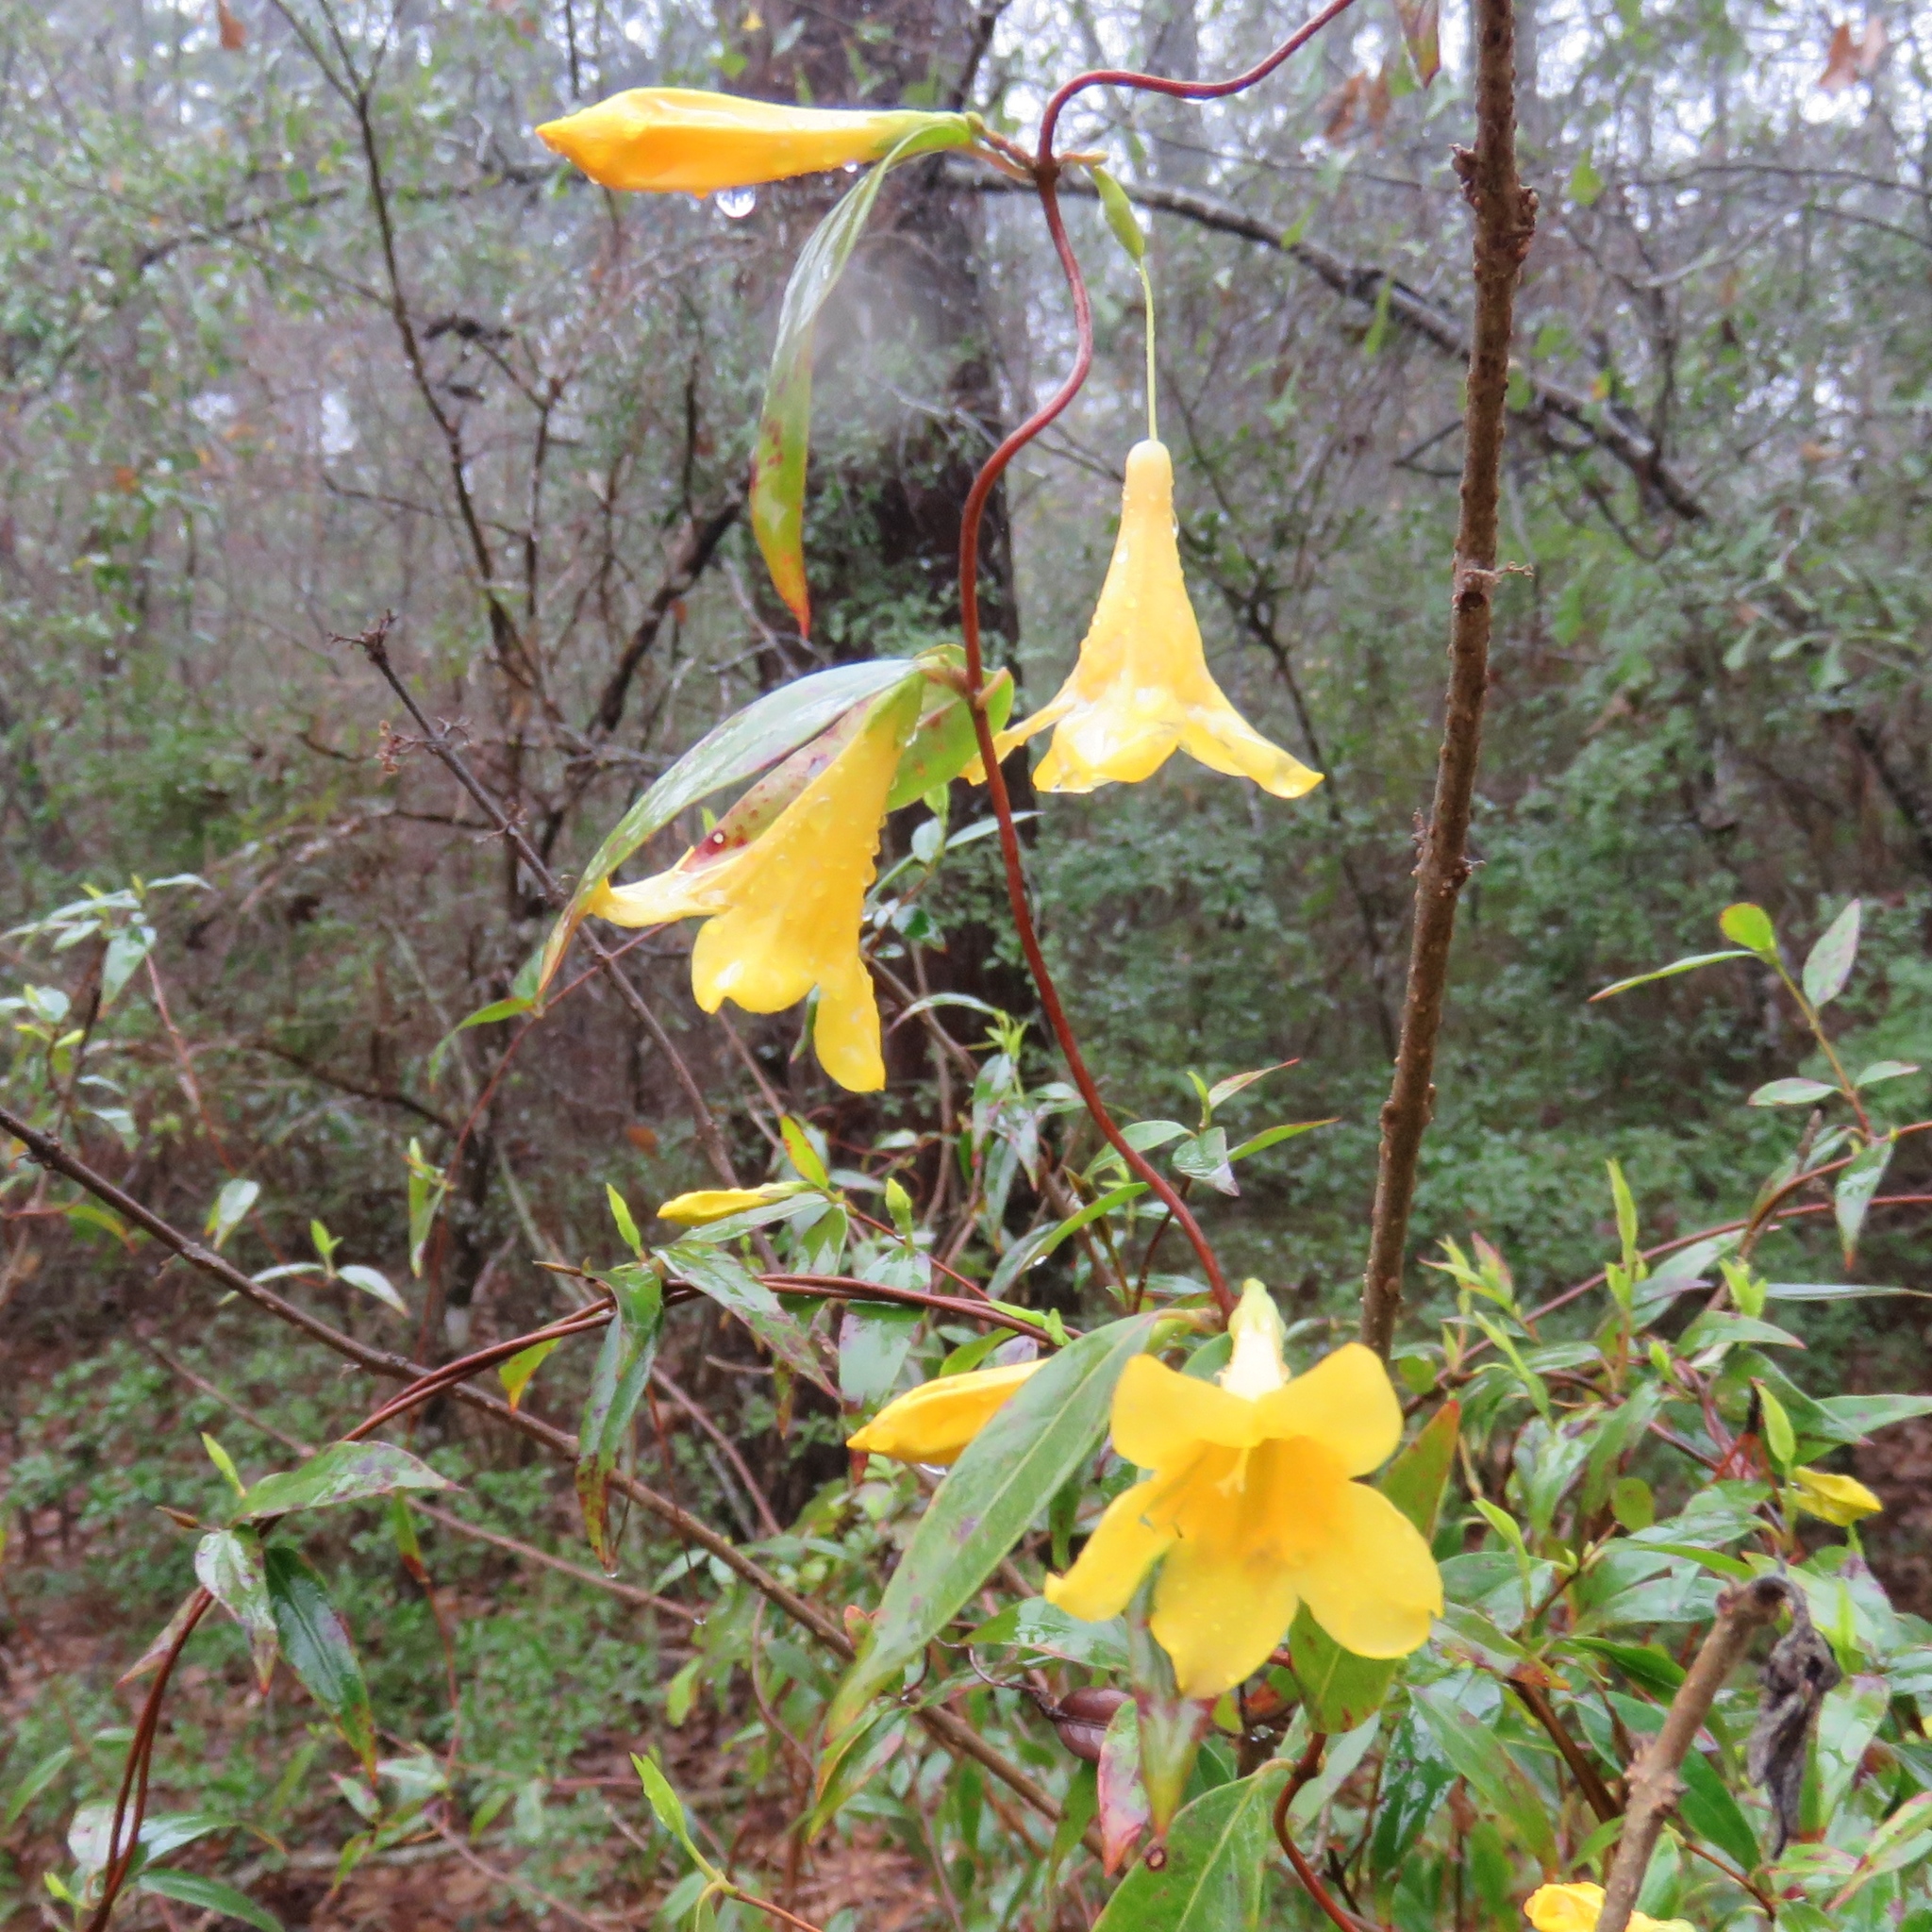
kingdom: Plantae
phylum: Tracheophyta
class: Magnoliopsida
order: Gentianales
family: Gelsemiaceae
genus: Gelsemium
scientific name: Gelsemium sempervirens
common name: Carolina-jasmine
